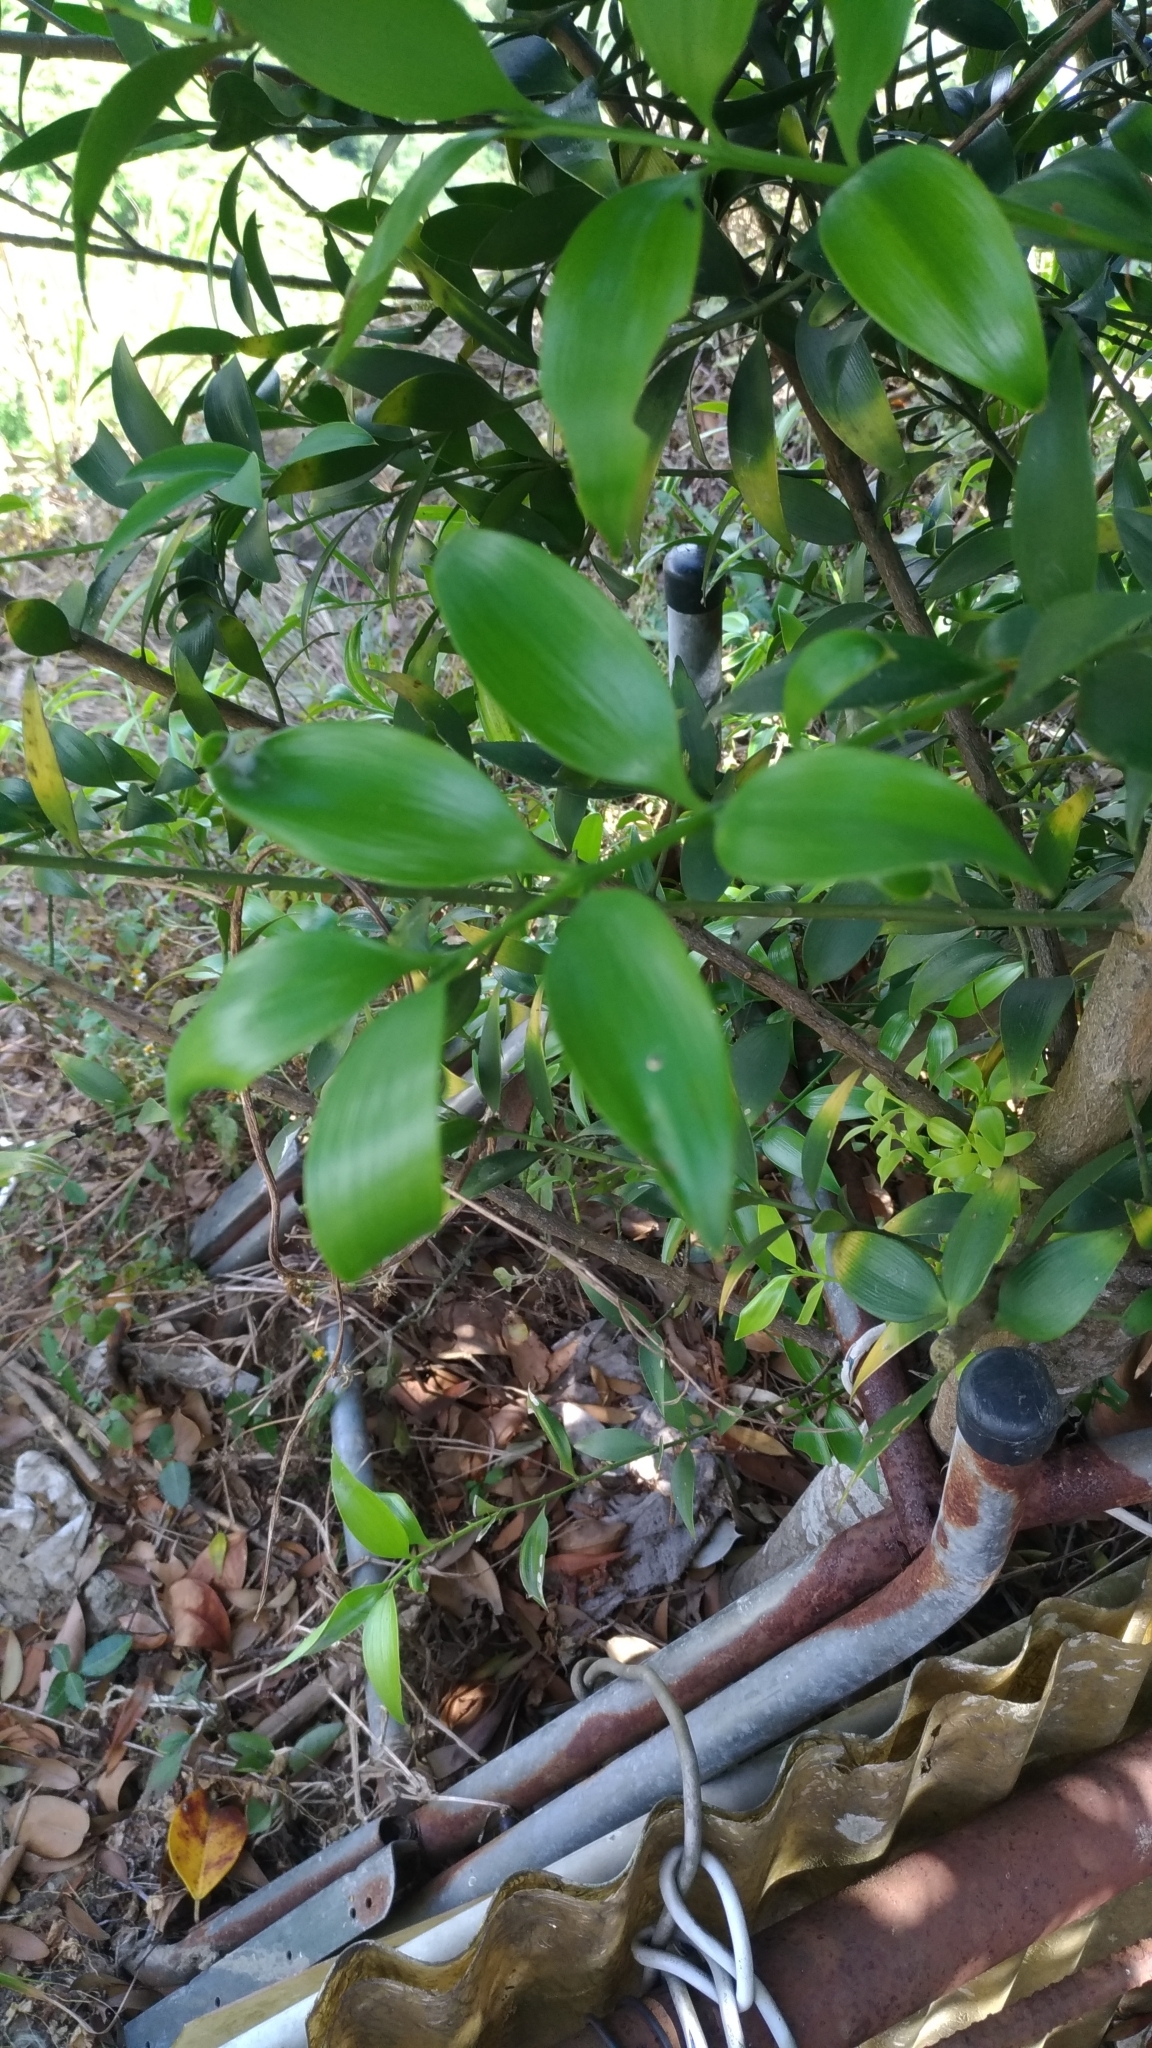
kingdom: Plantae
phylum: Tracheophyta
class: Pinopsida
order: Pinales
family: Podocarpaceae
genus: Nageia
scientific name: Nageia nagi
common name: Kaphal
